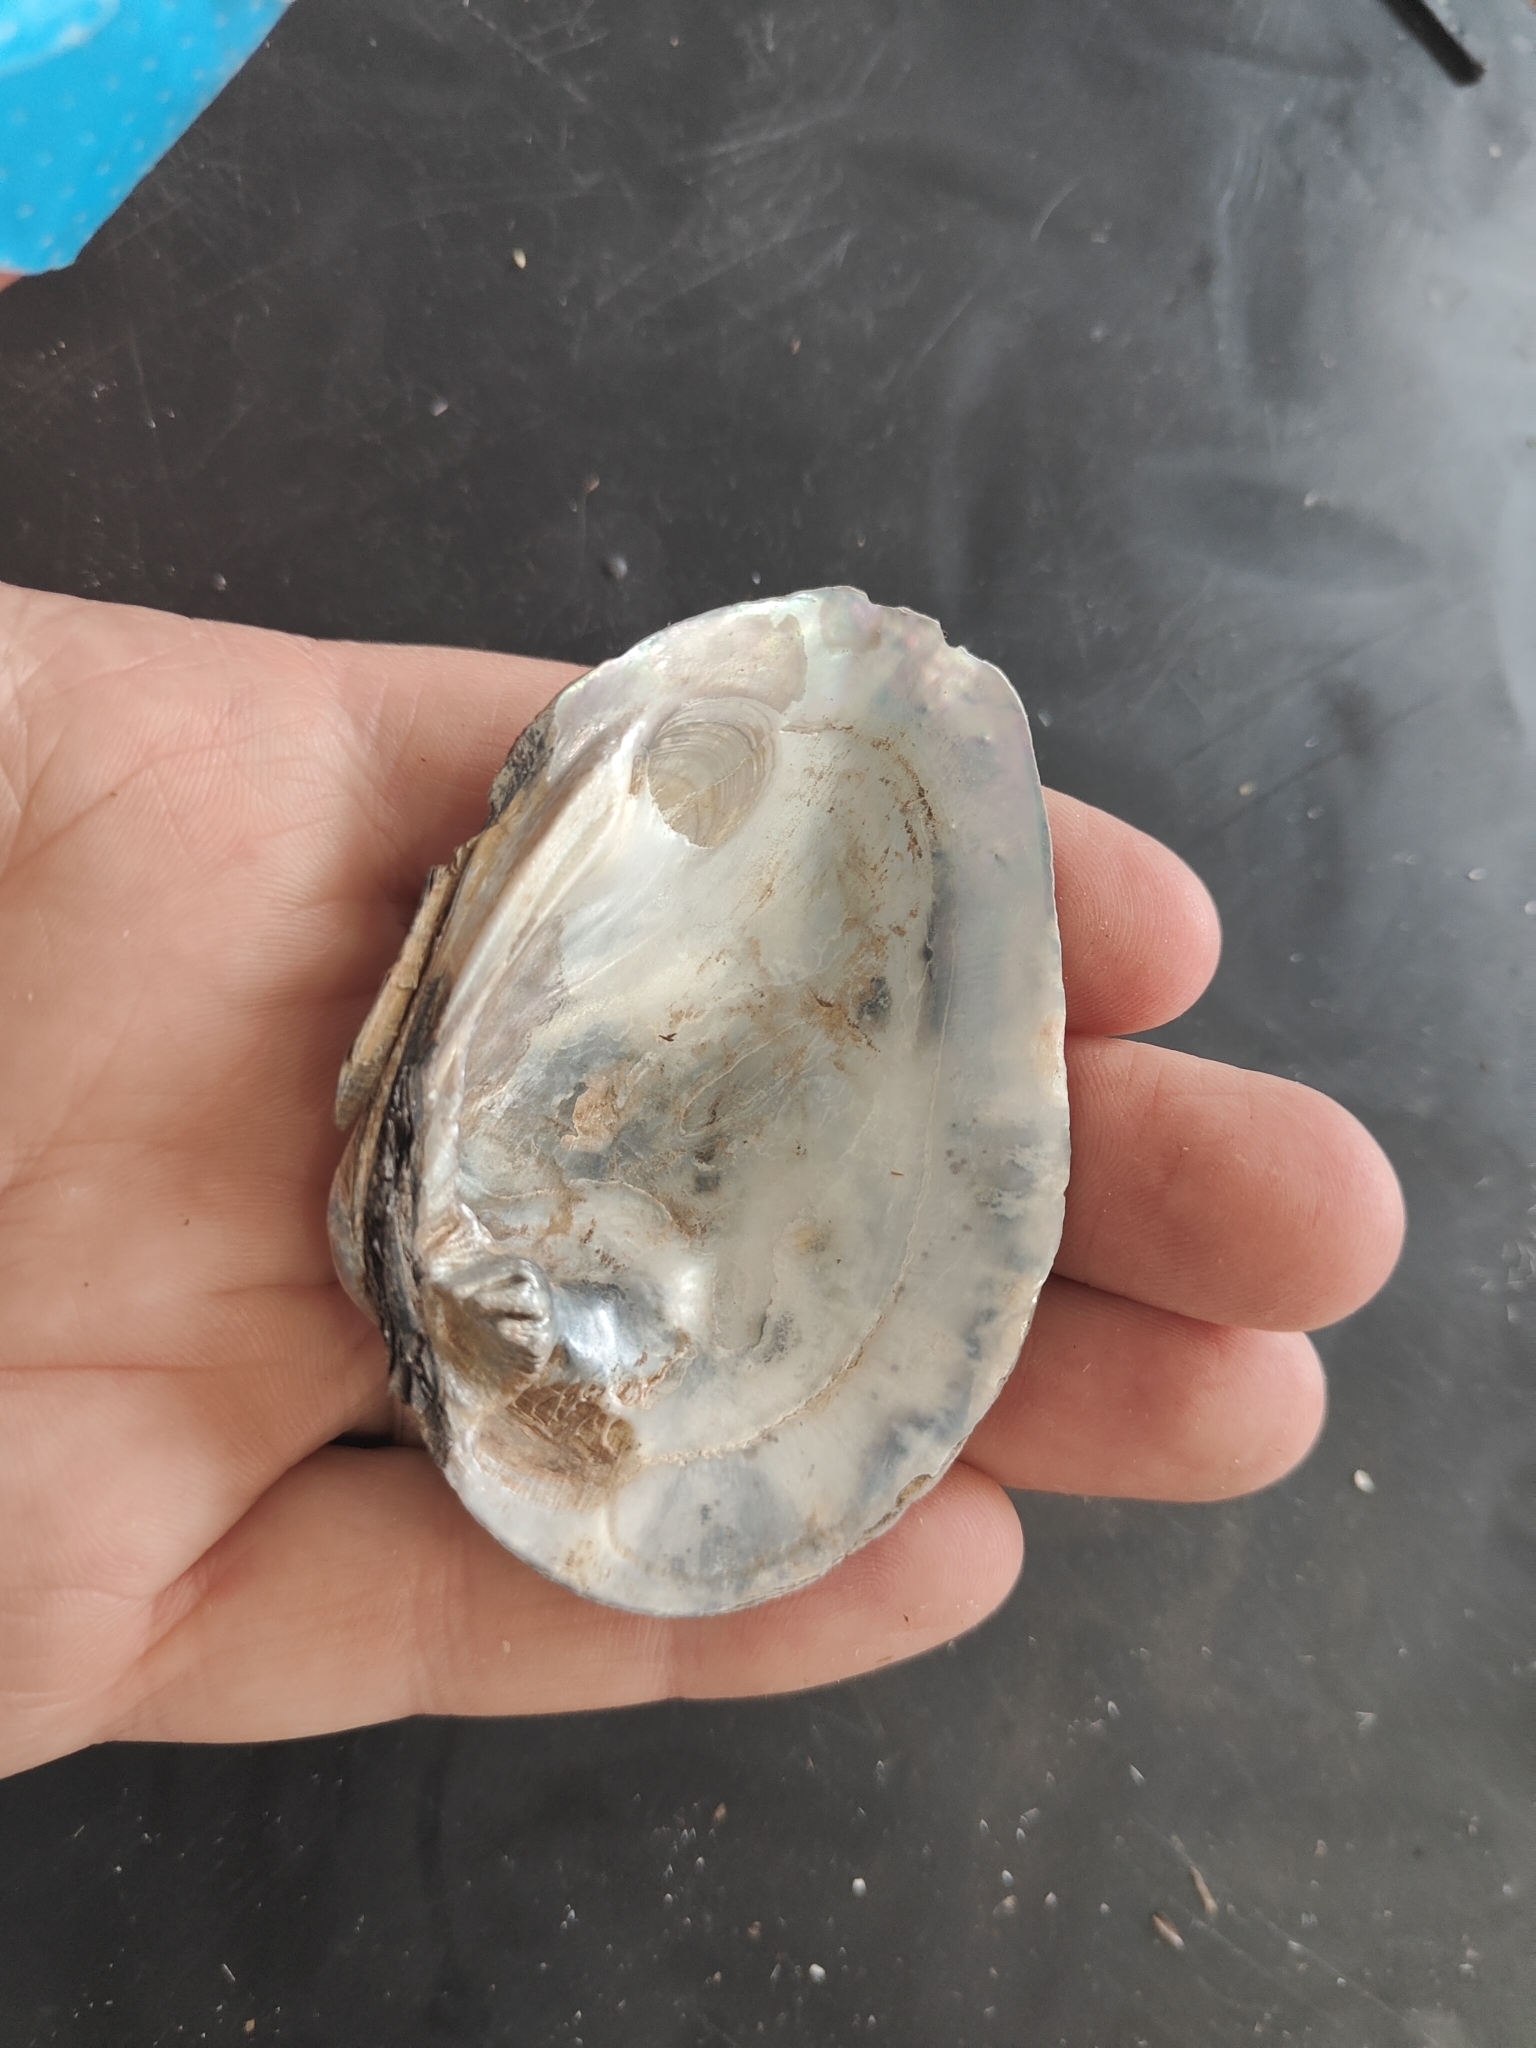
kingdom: Animalia
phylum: Mollusca
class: Bivalvia
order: Unionida
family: Unionidae
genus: Fusconaia
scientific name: Fusconaia flava
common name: Wabash pigtoe
